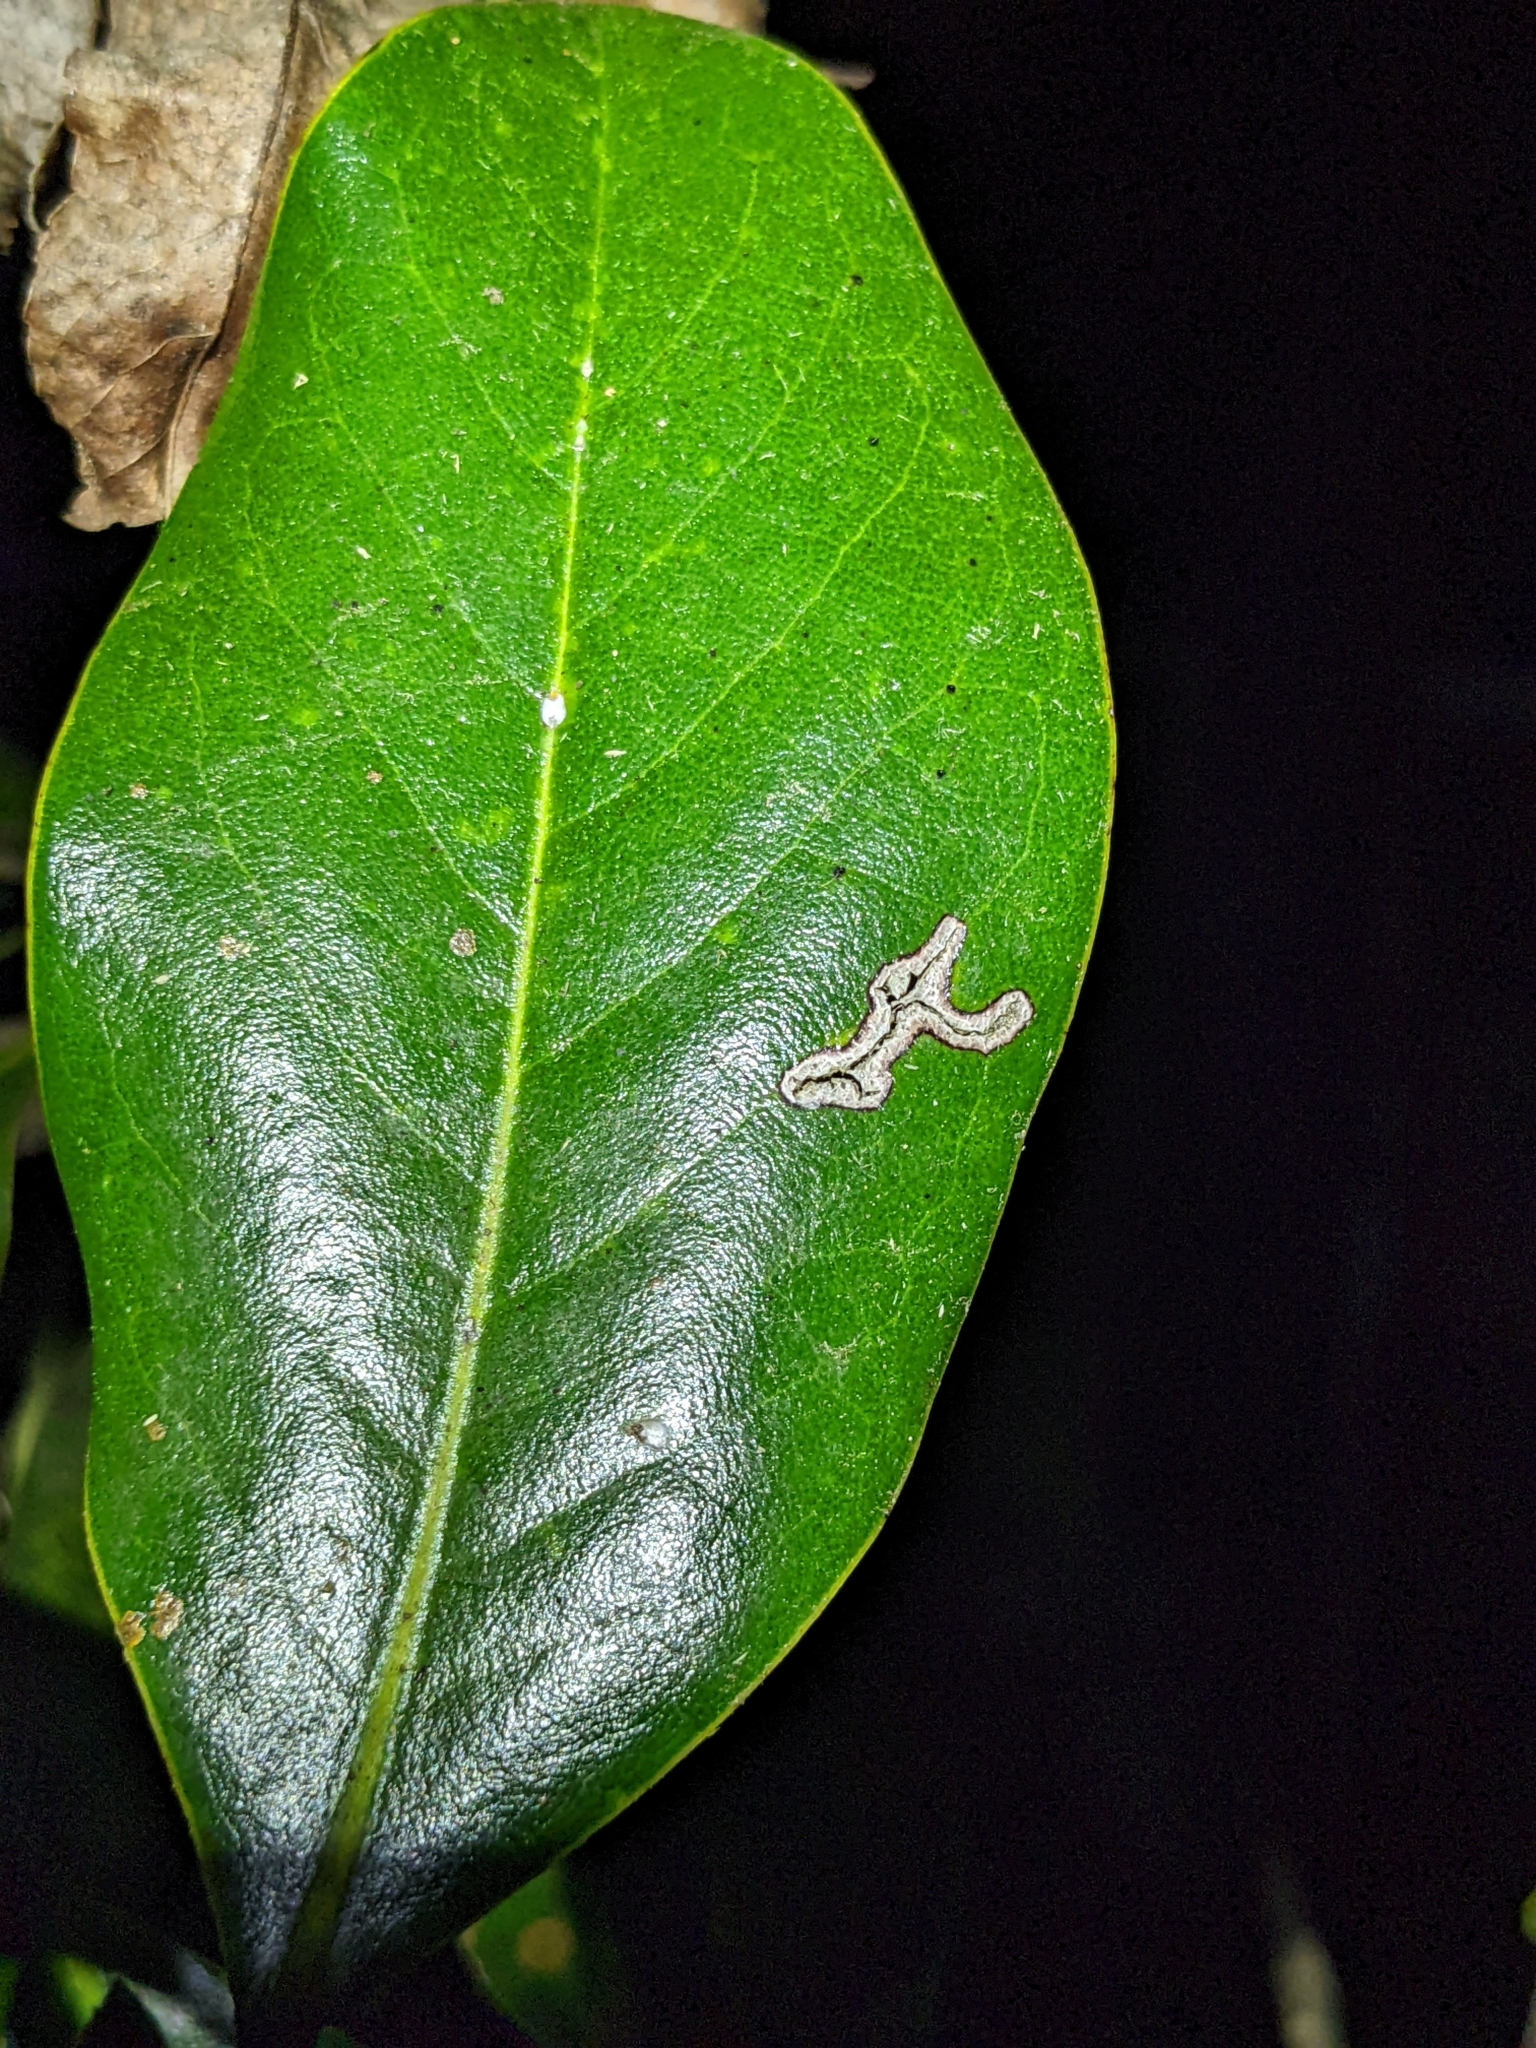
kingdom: Plantae
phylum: Tracheophyta
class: Magnoliopsida
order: Magnoliales
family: Magnoliaceae
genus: Magnolia
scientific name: Magnolia grandiflora
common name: Southern magnolia
